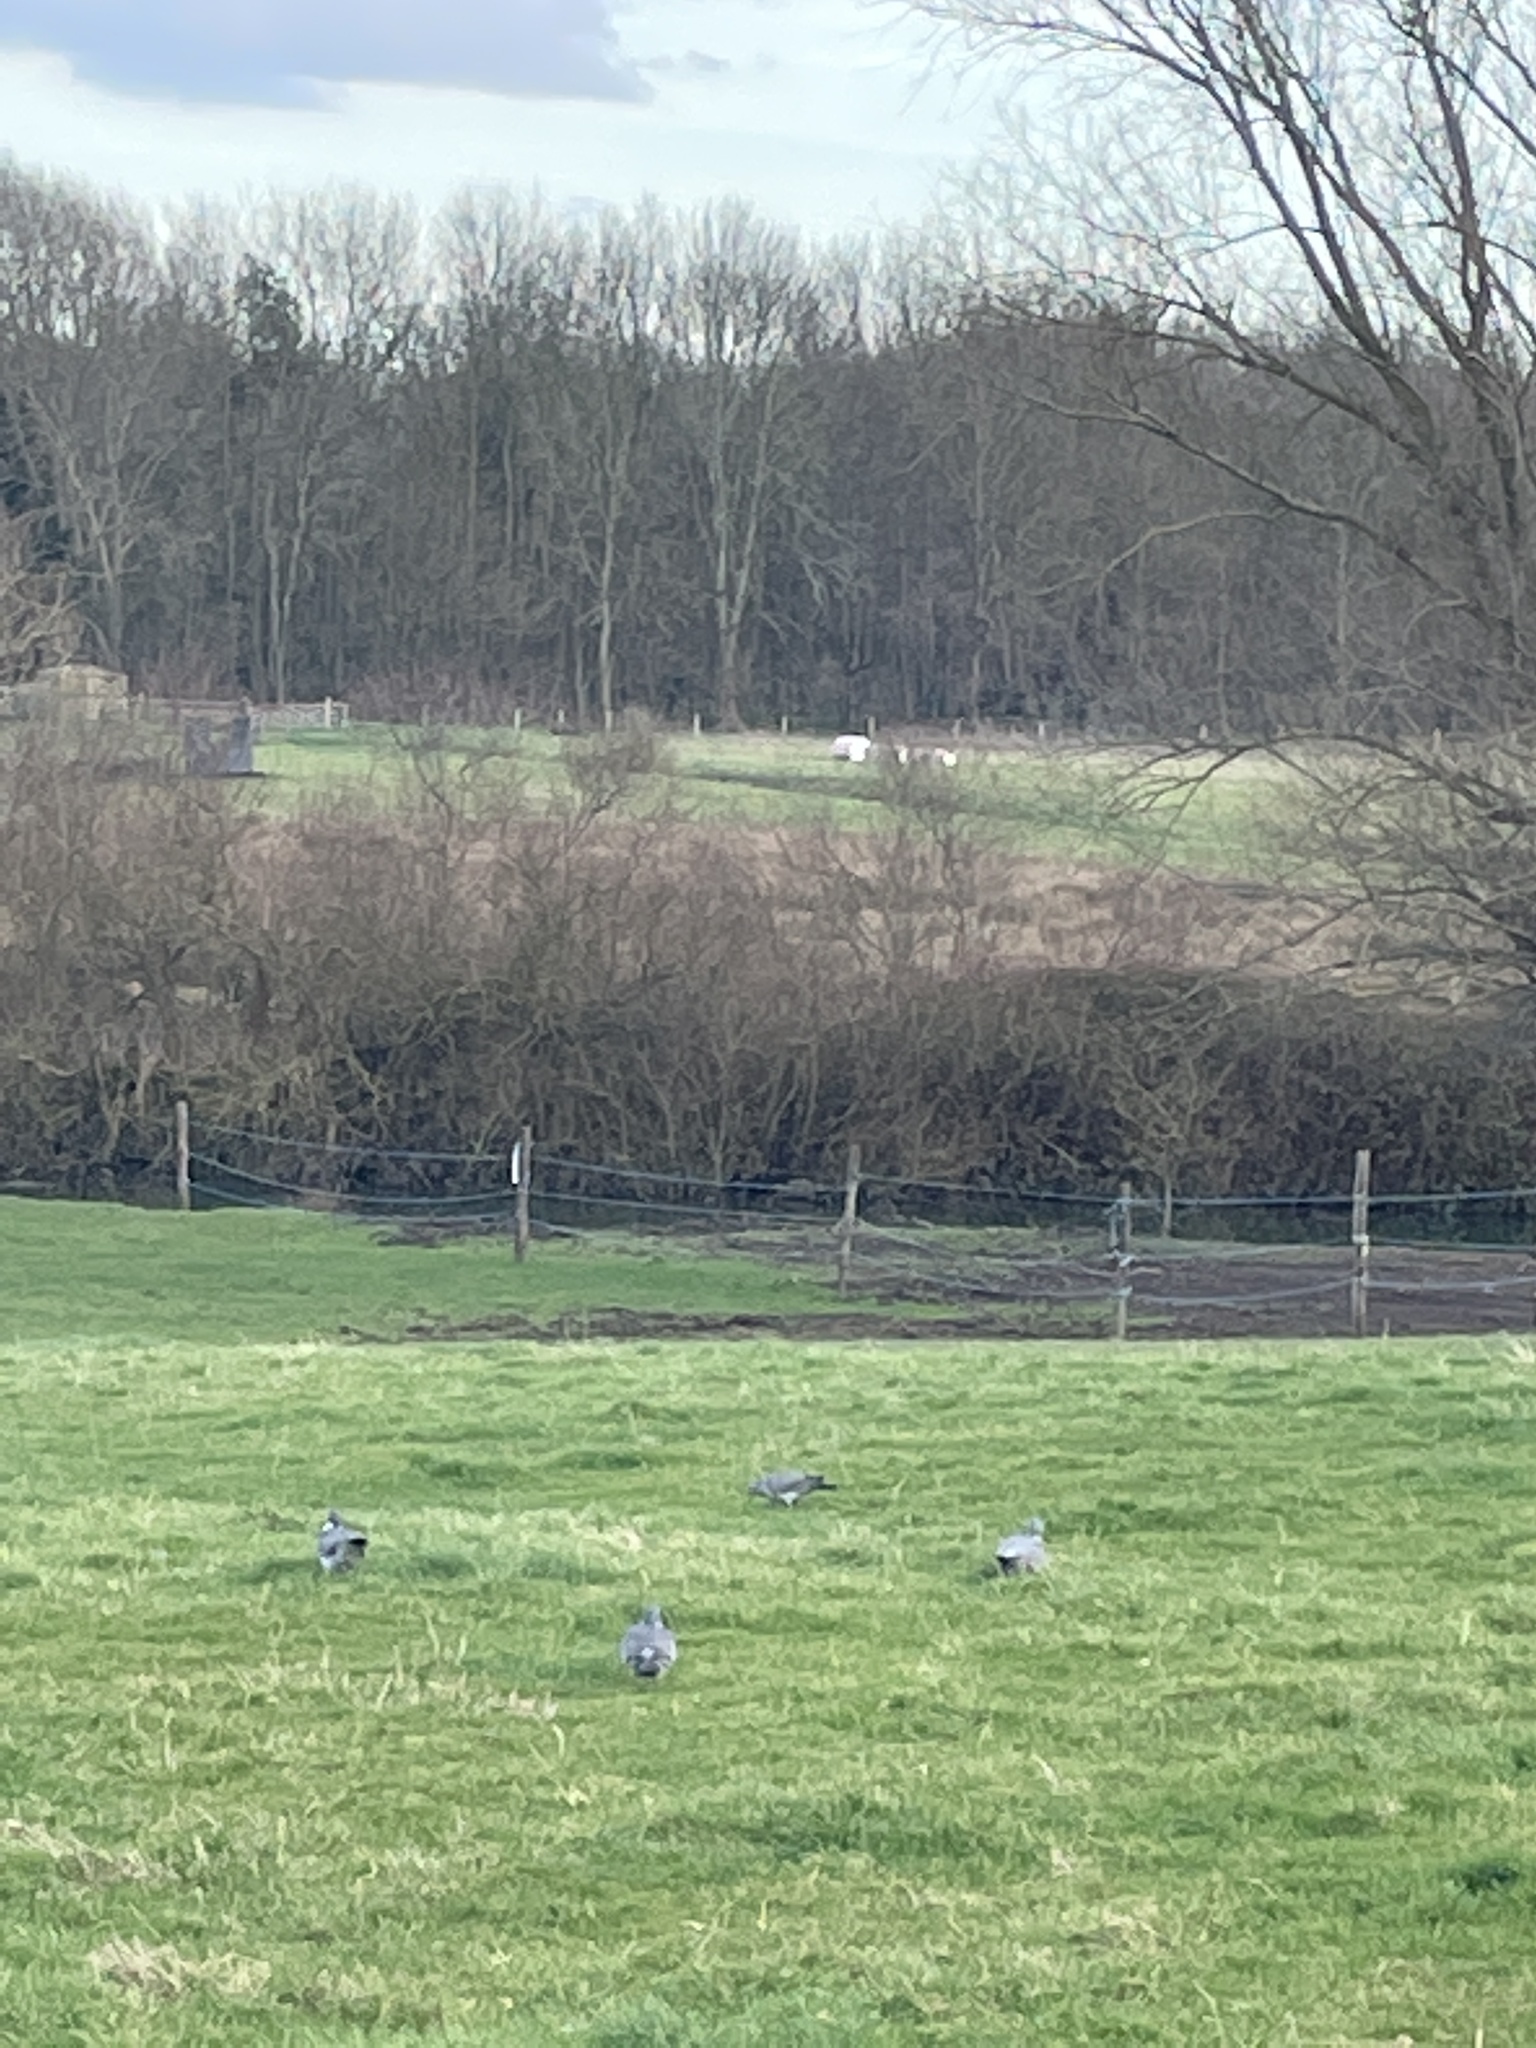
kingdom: Animalia
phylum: Chordata
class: Aves
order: Columbiformes
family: Columbidae
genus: Columba
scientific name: Columba palumbus
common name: Common wood pigeon
